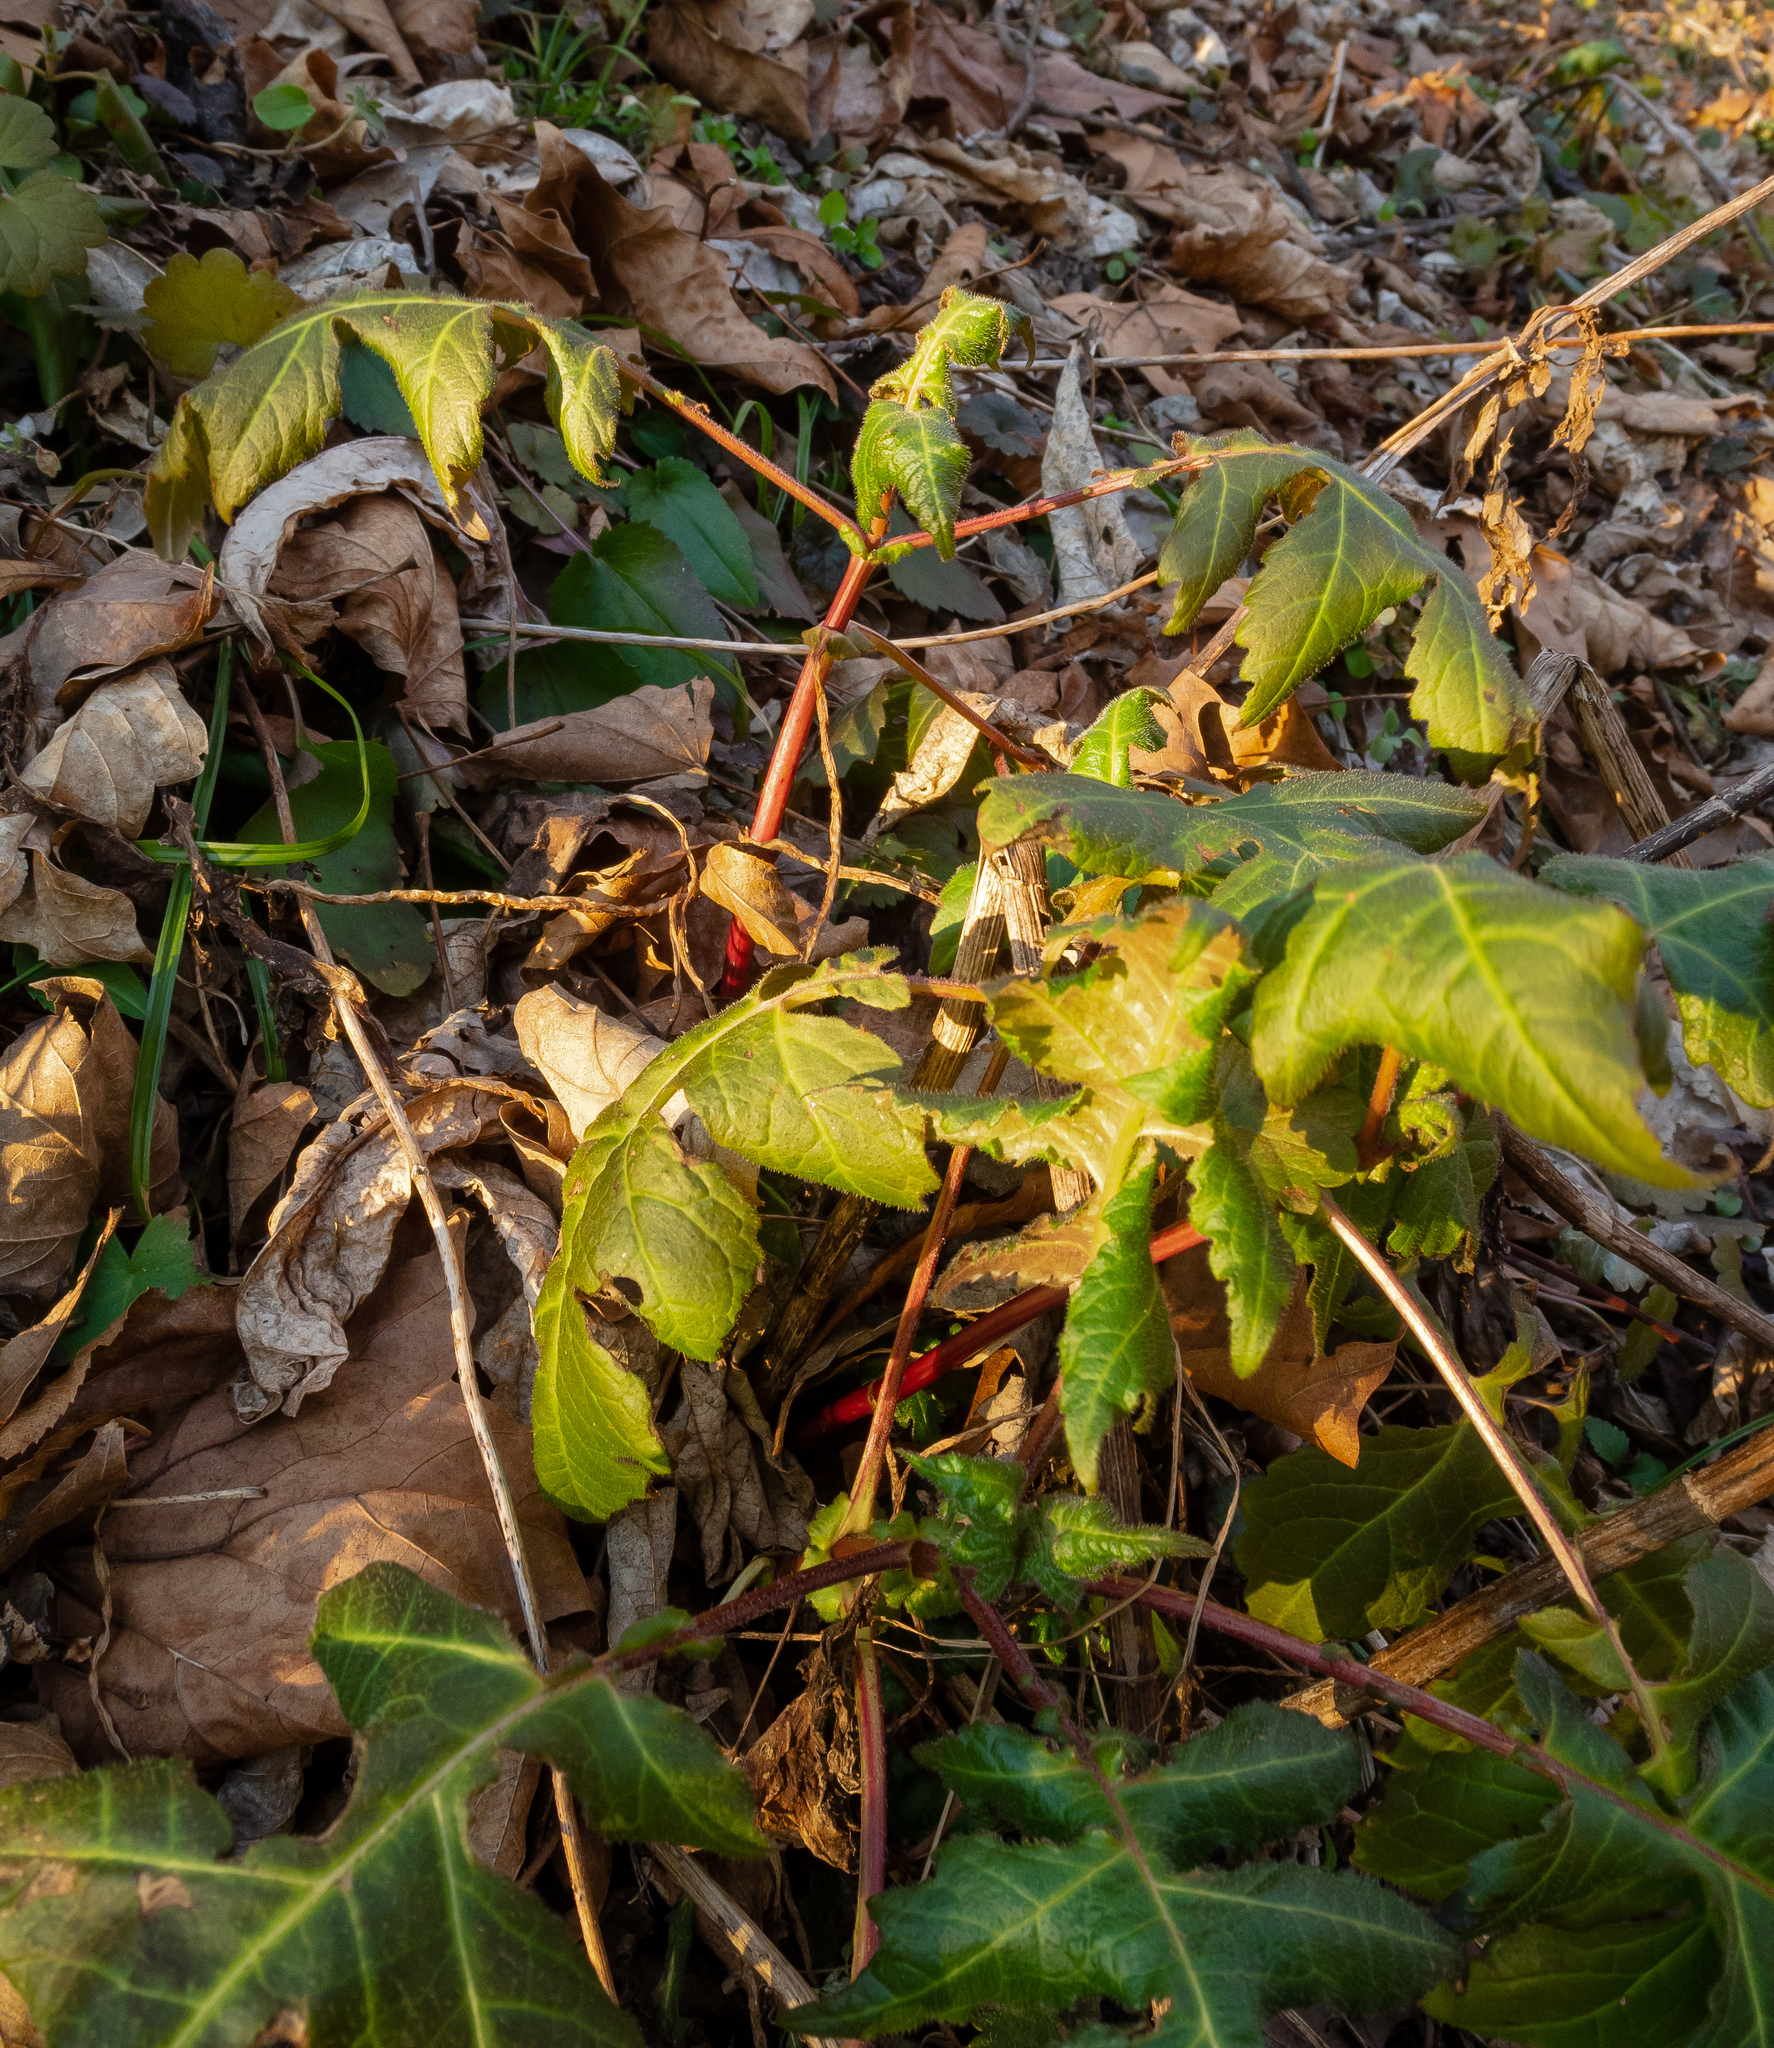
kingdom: Plantae
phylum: Tracheophyta
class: Magnoliopsida
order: Asterales
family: Asteraceae
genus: Polymnia
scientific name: Polymnia canadensis
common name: Pale-flowered leafcup
